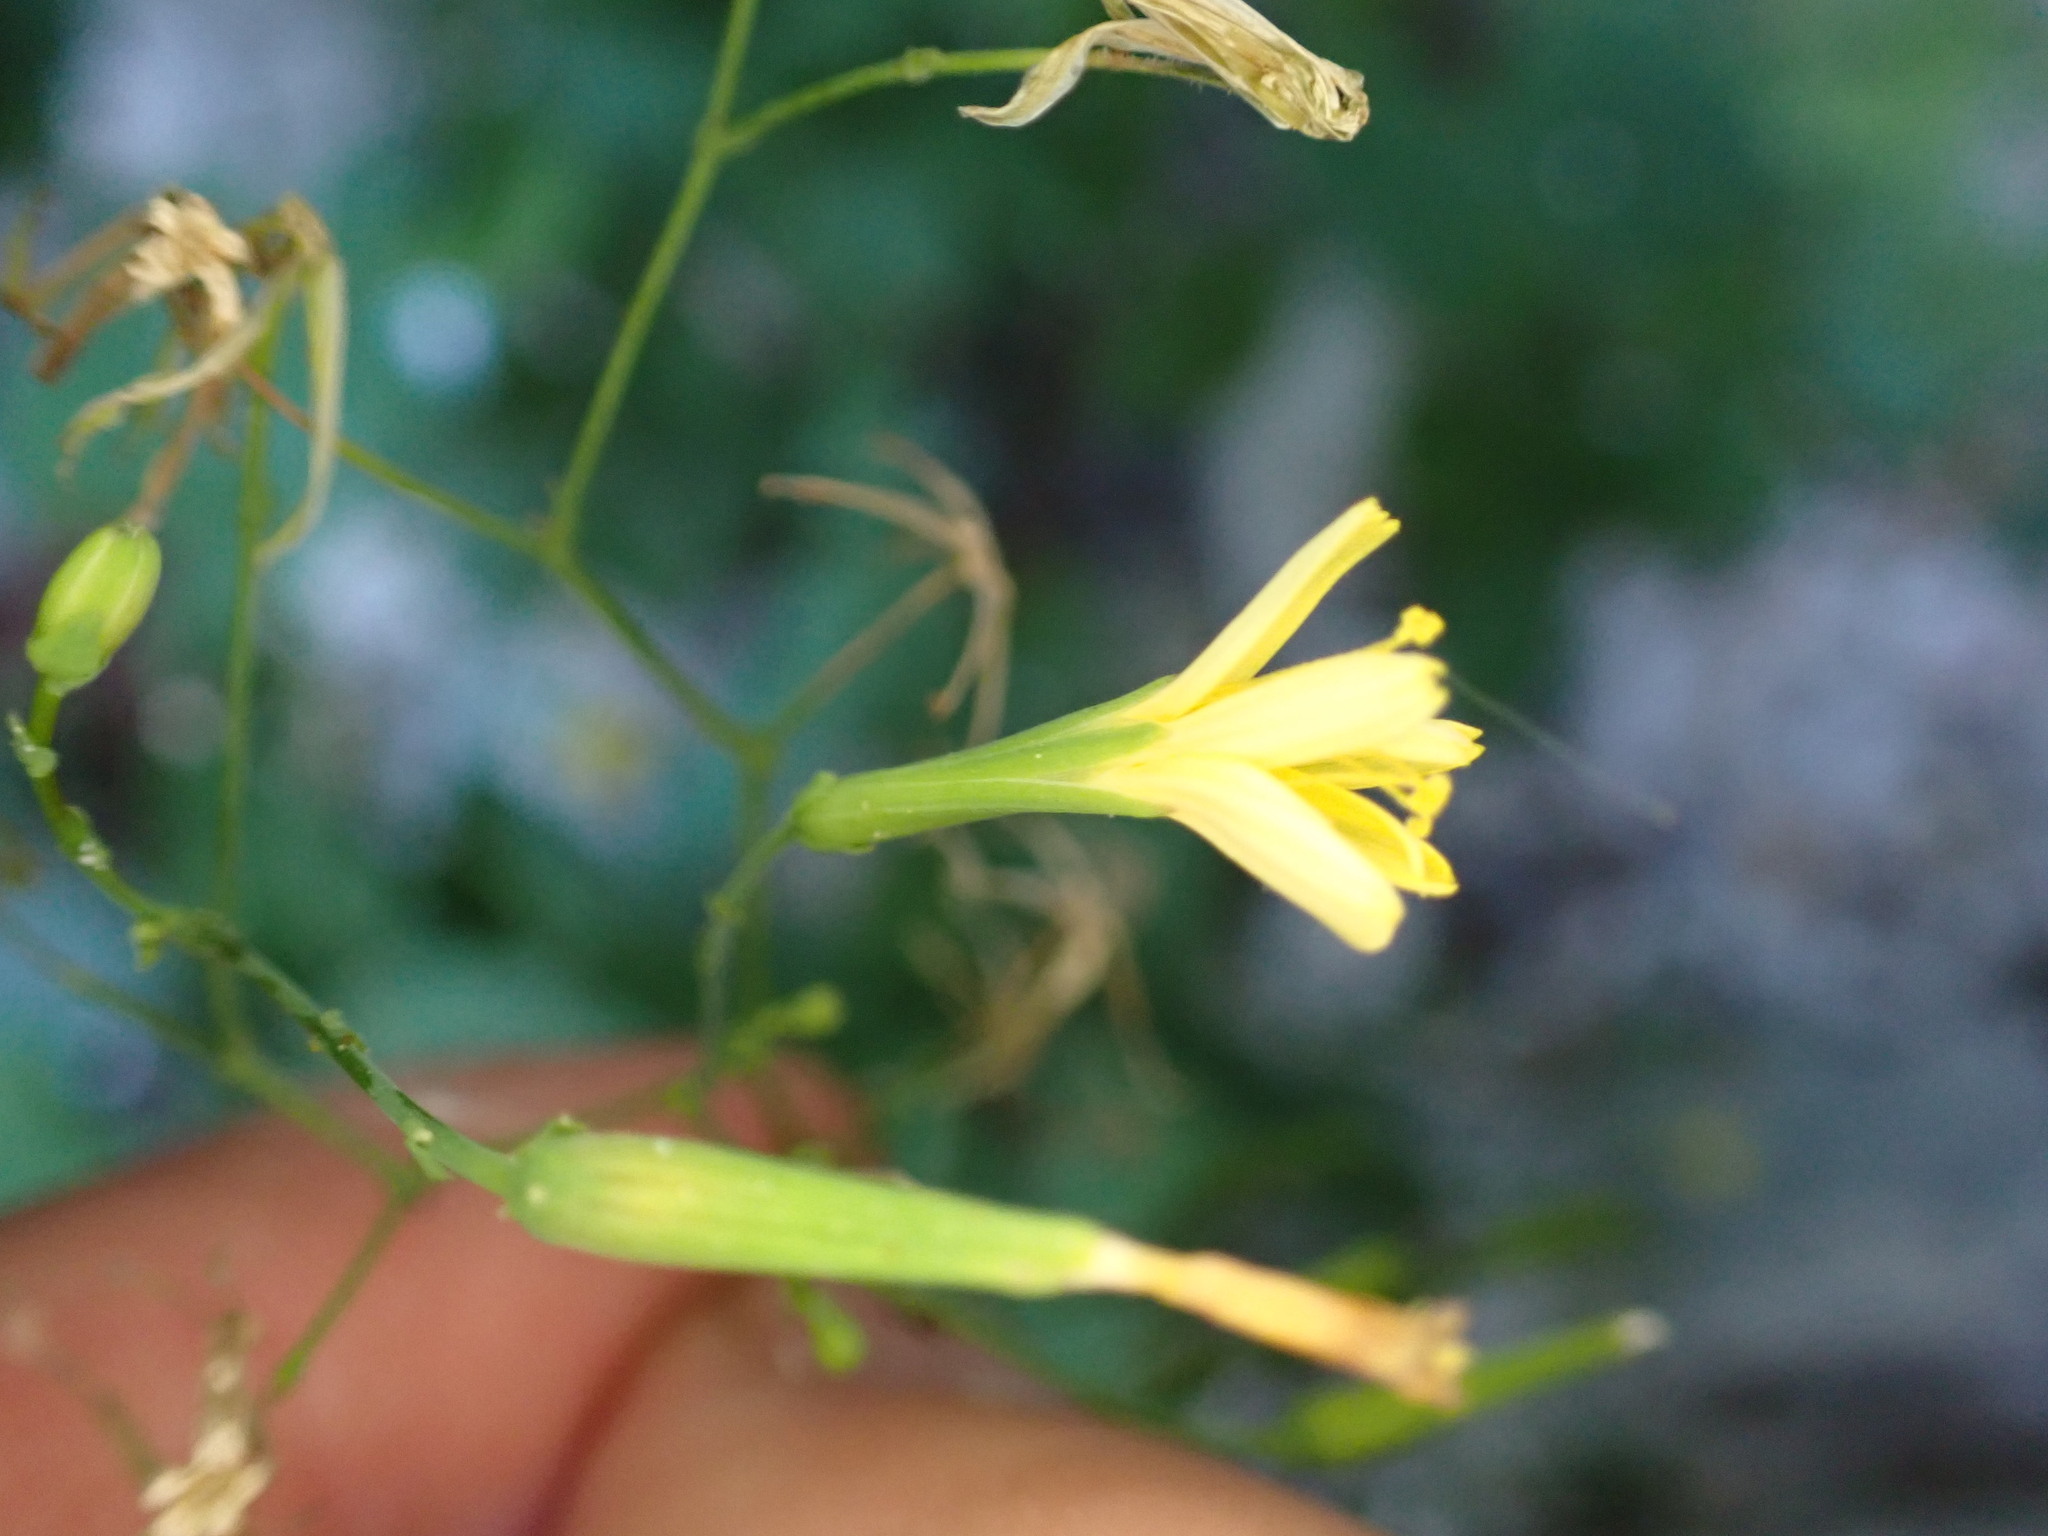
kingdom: Plantae
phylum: Tracheophyta
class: Magnoliopsida
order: Asterales
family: Asteraceae
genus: Mycelis
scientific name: Mycelis muralis
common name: Wall lettuce
